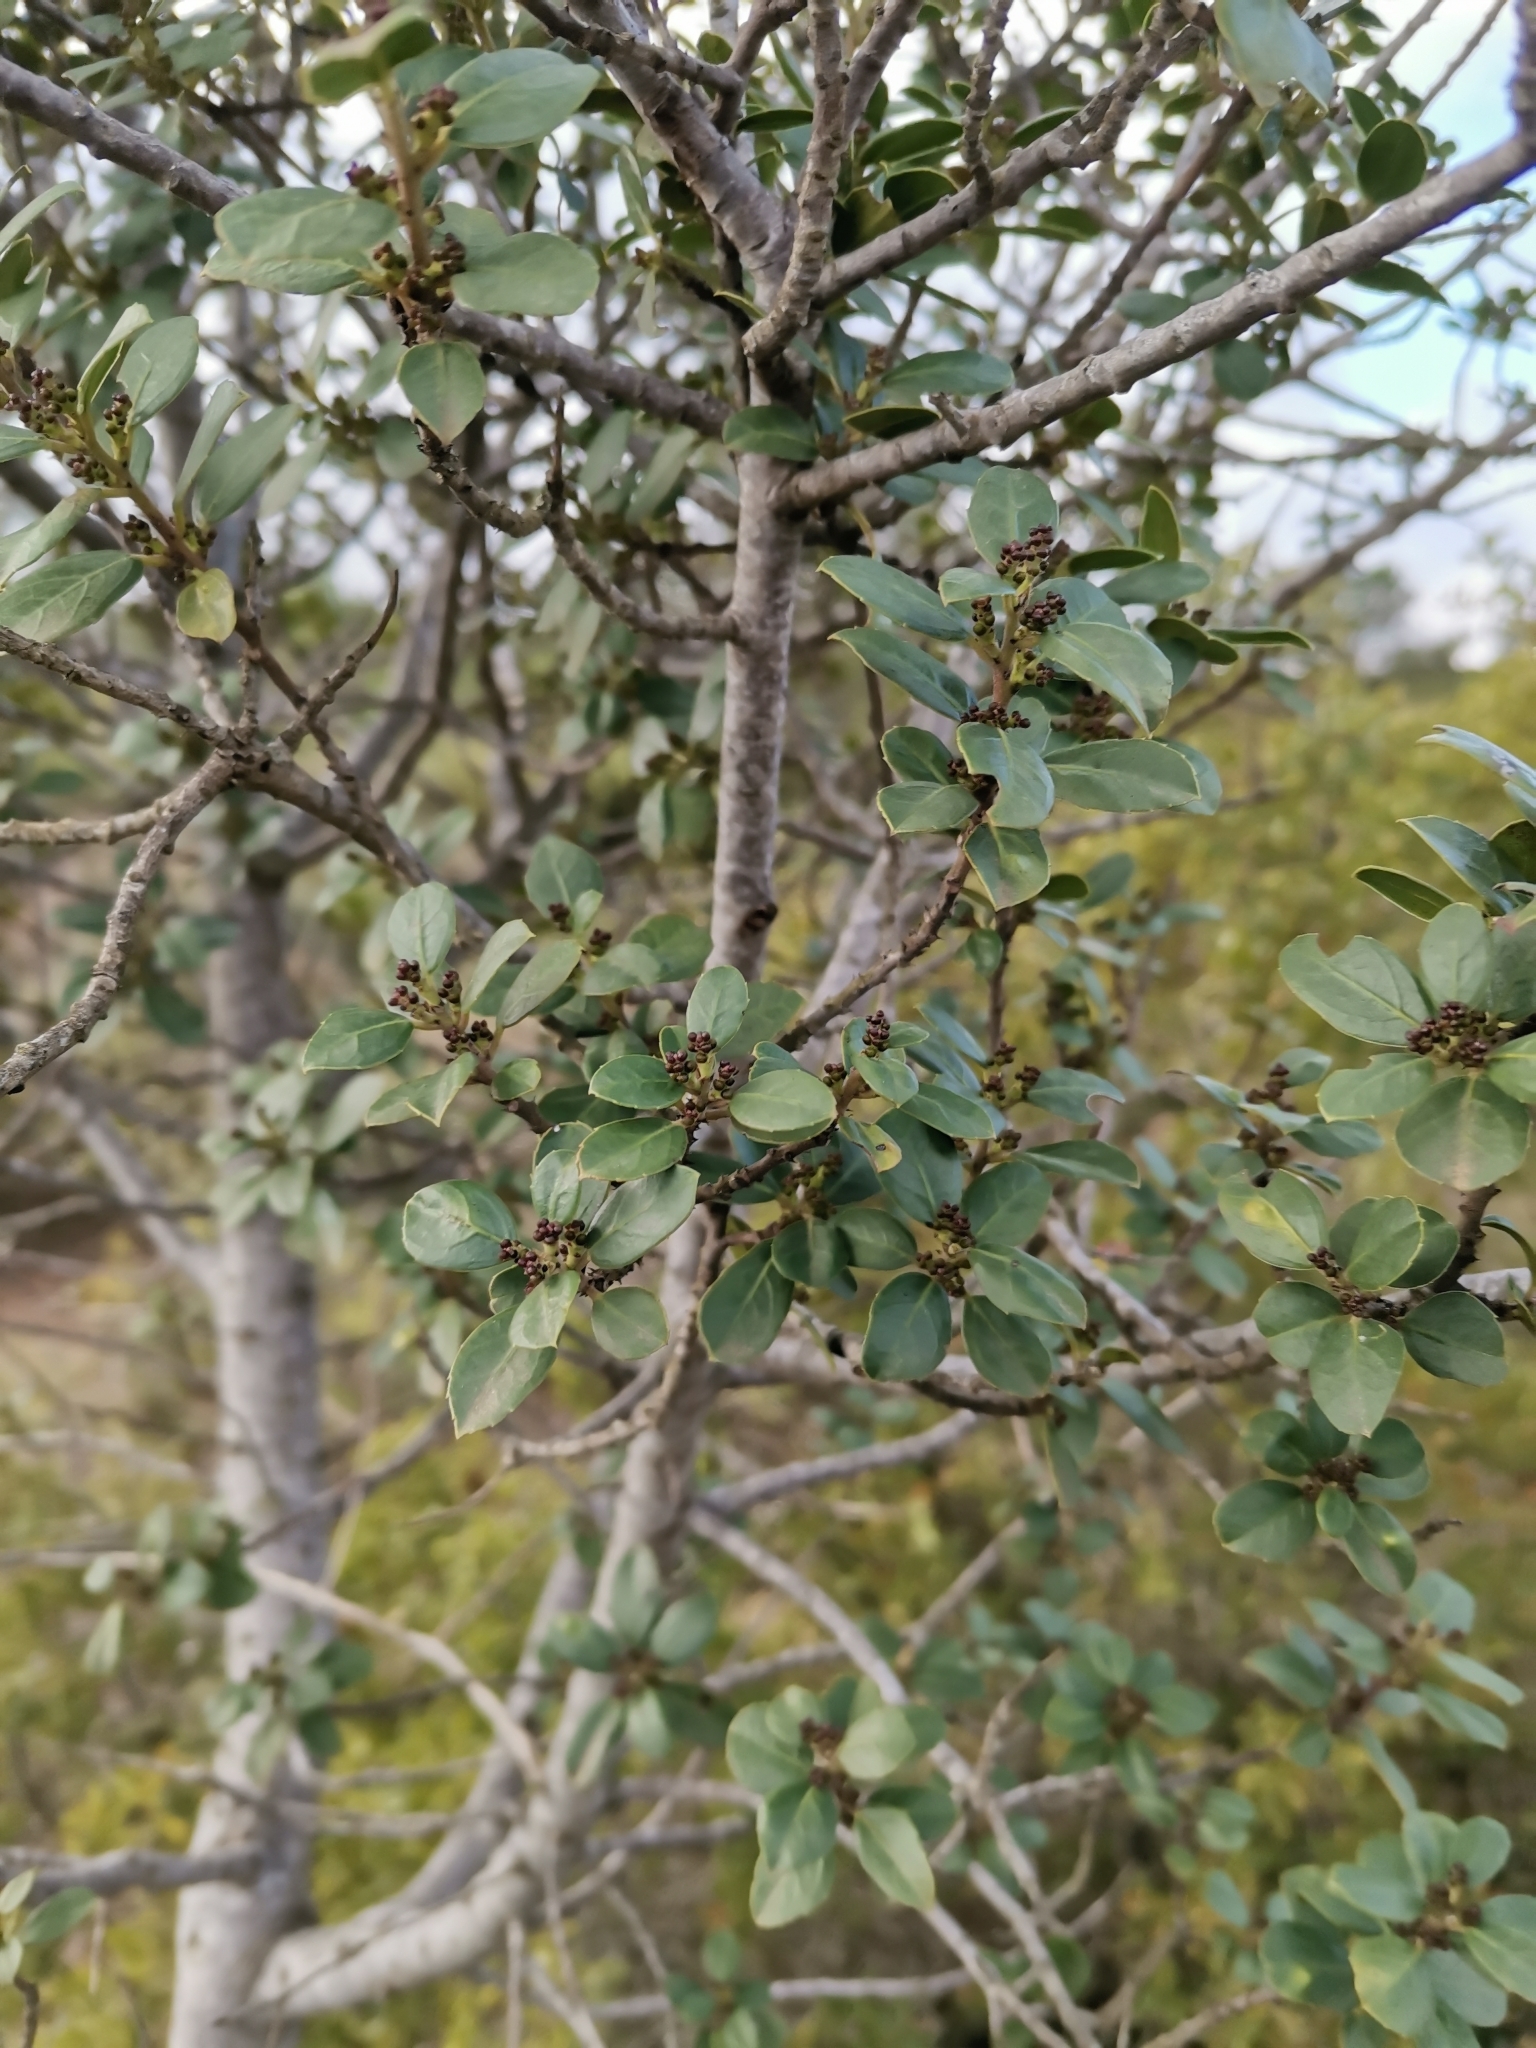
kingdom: Plantae
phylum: Tracheophyta
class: Magnoliopsida
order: Rosales
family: Rhamnaceae
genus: Rhamnus
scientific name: Rhamnus alaternus
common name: Mediterranean buckthorn
